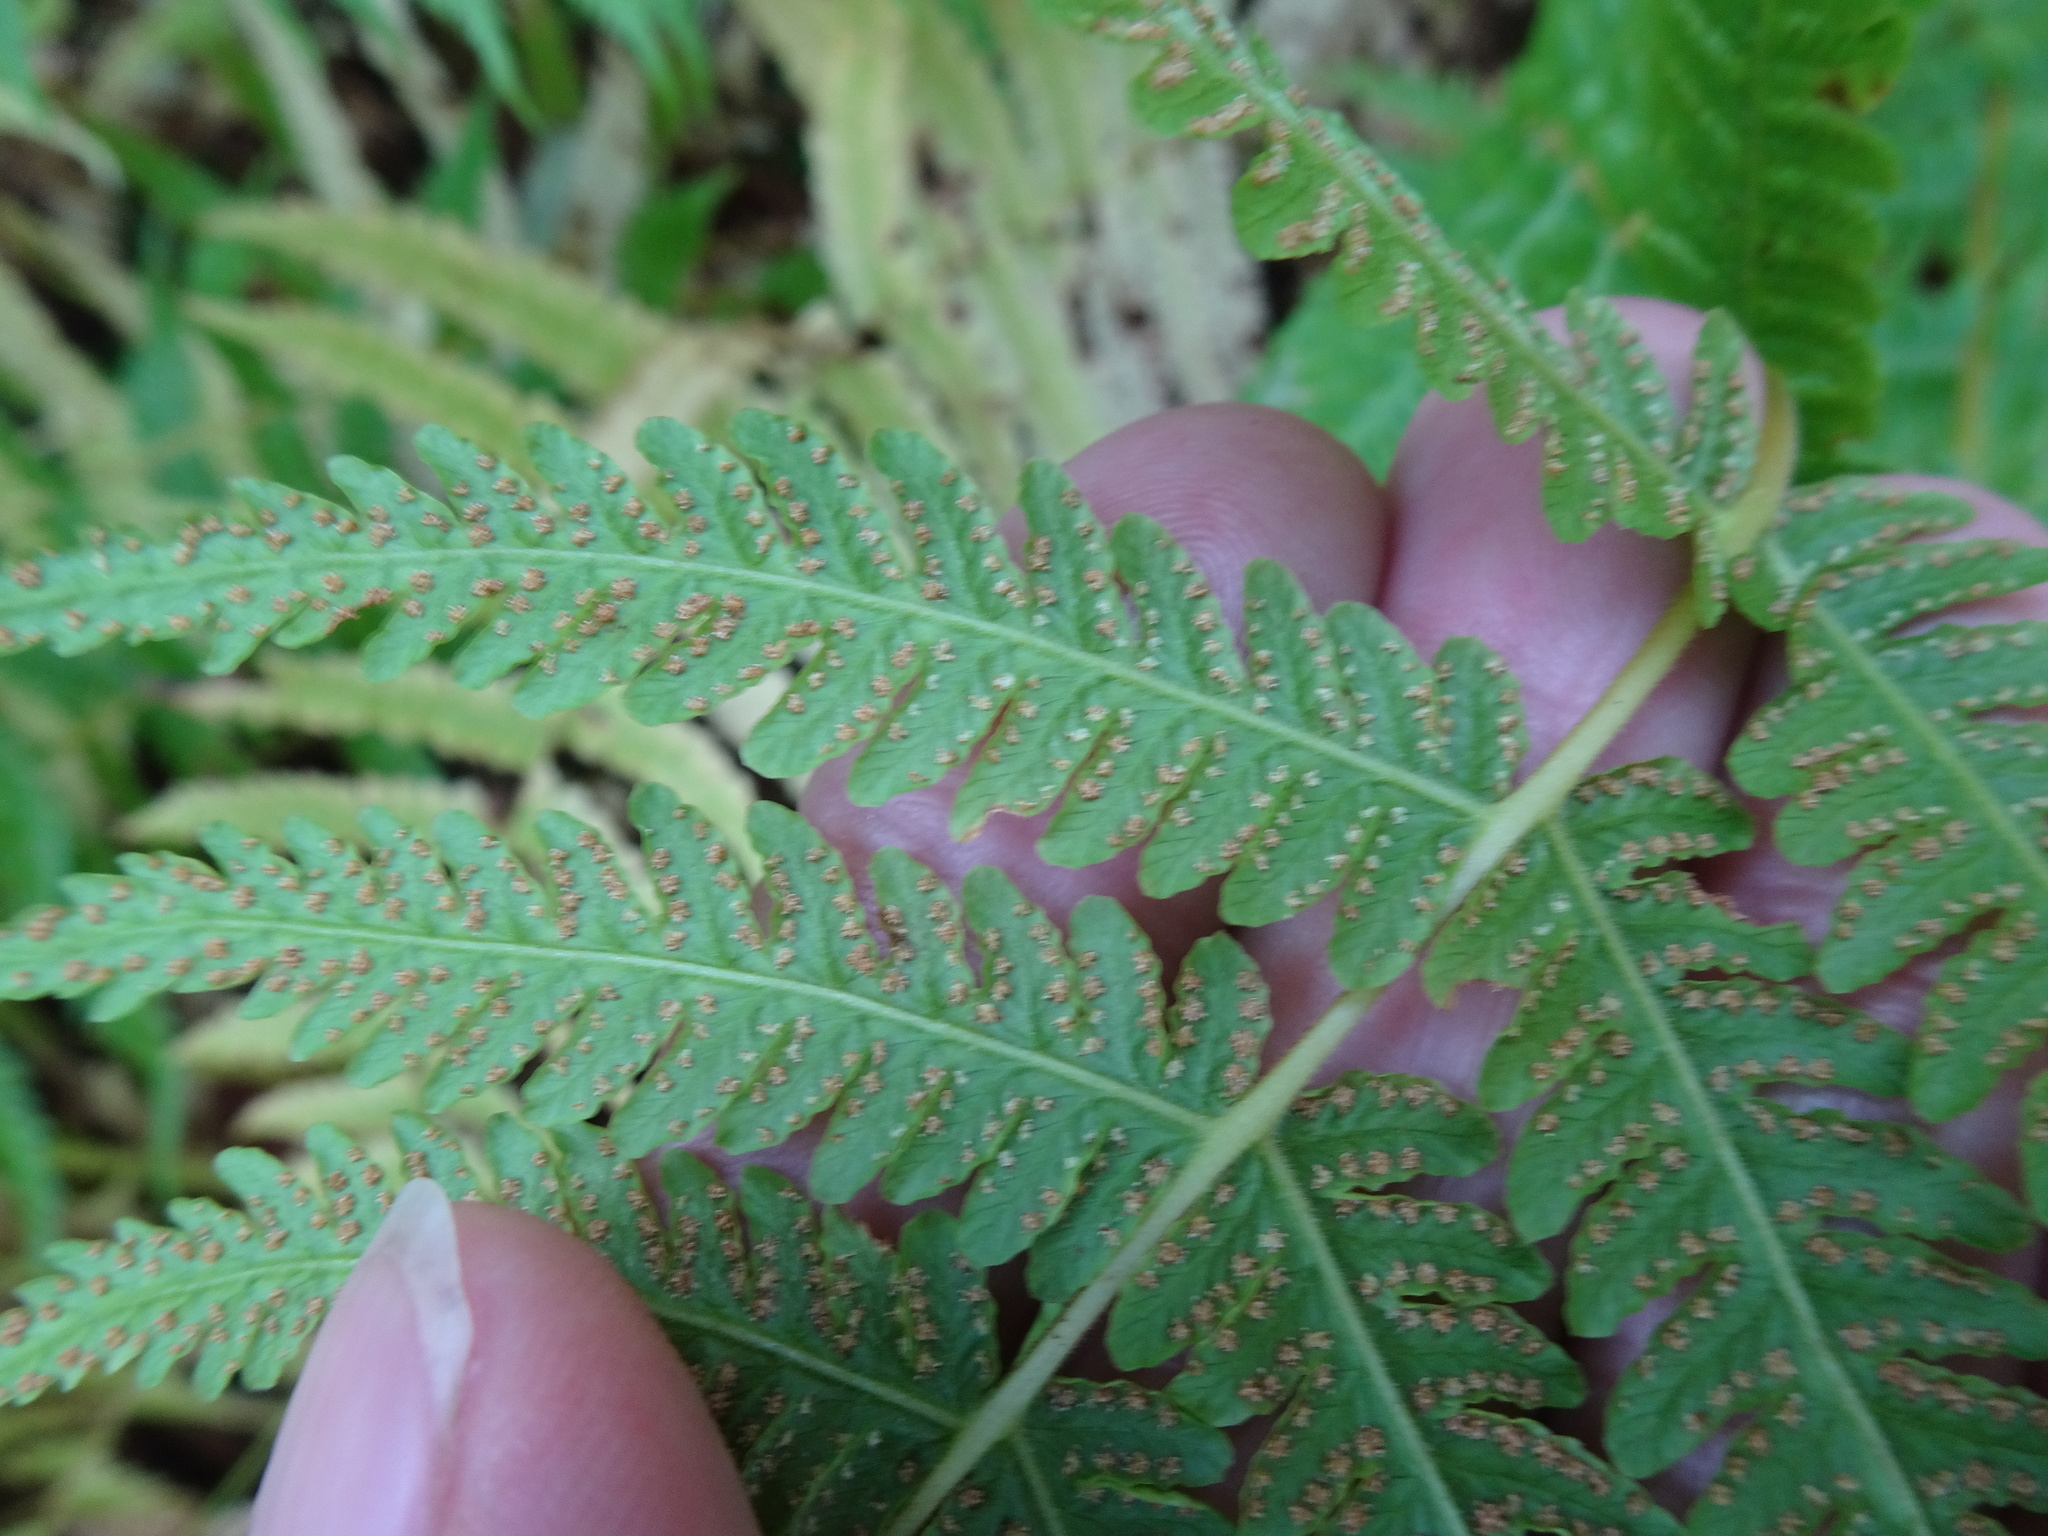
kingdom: Plantae
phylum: Tracheophyta
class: Polypodiopsida
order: Polypodiales
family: Thelypteridaceae
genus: Oreopteris
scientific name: Oreopteris limbosperma
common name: Lemon-scented fern
